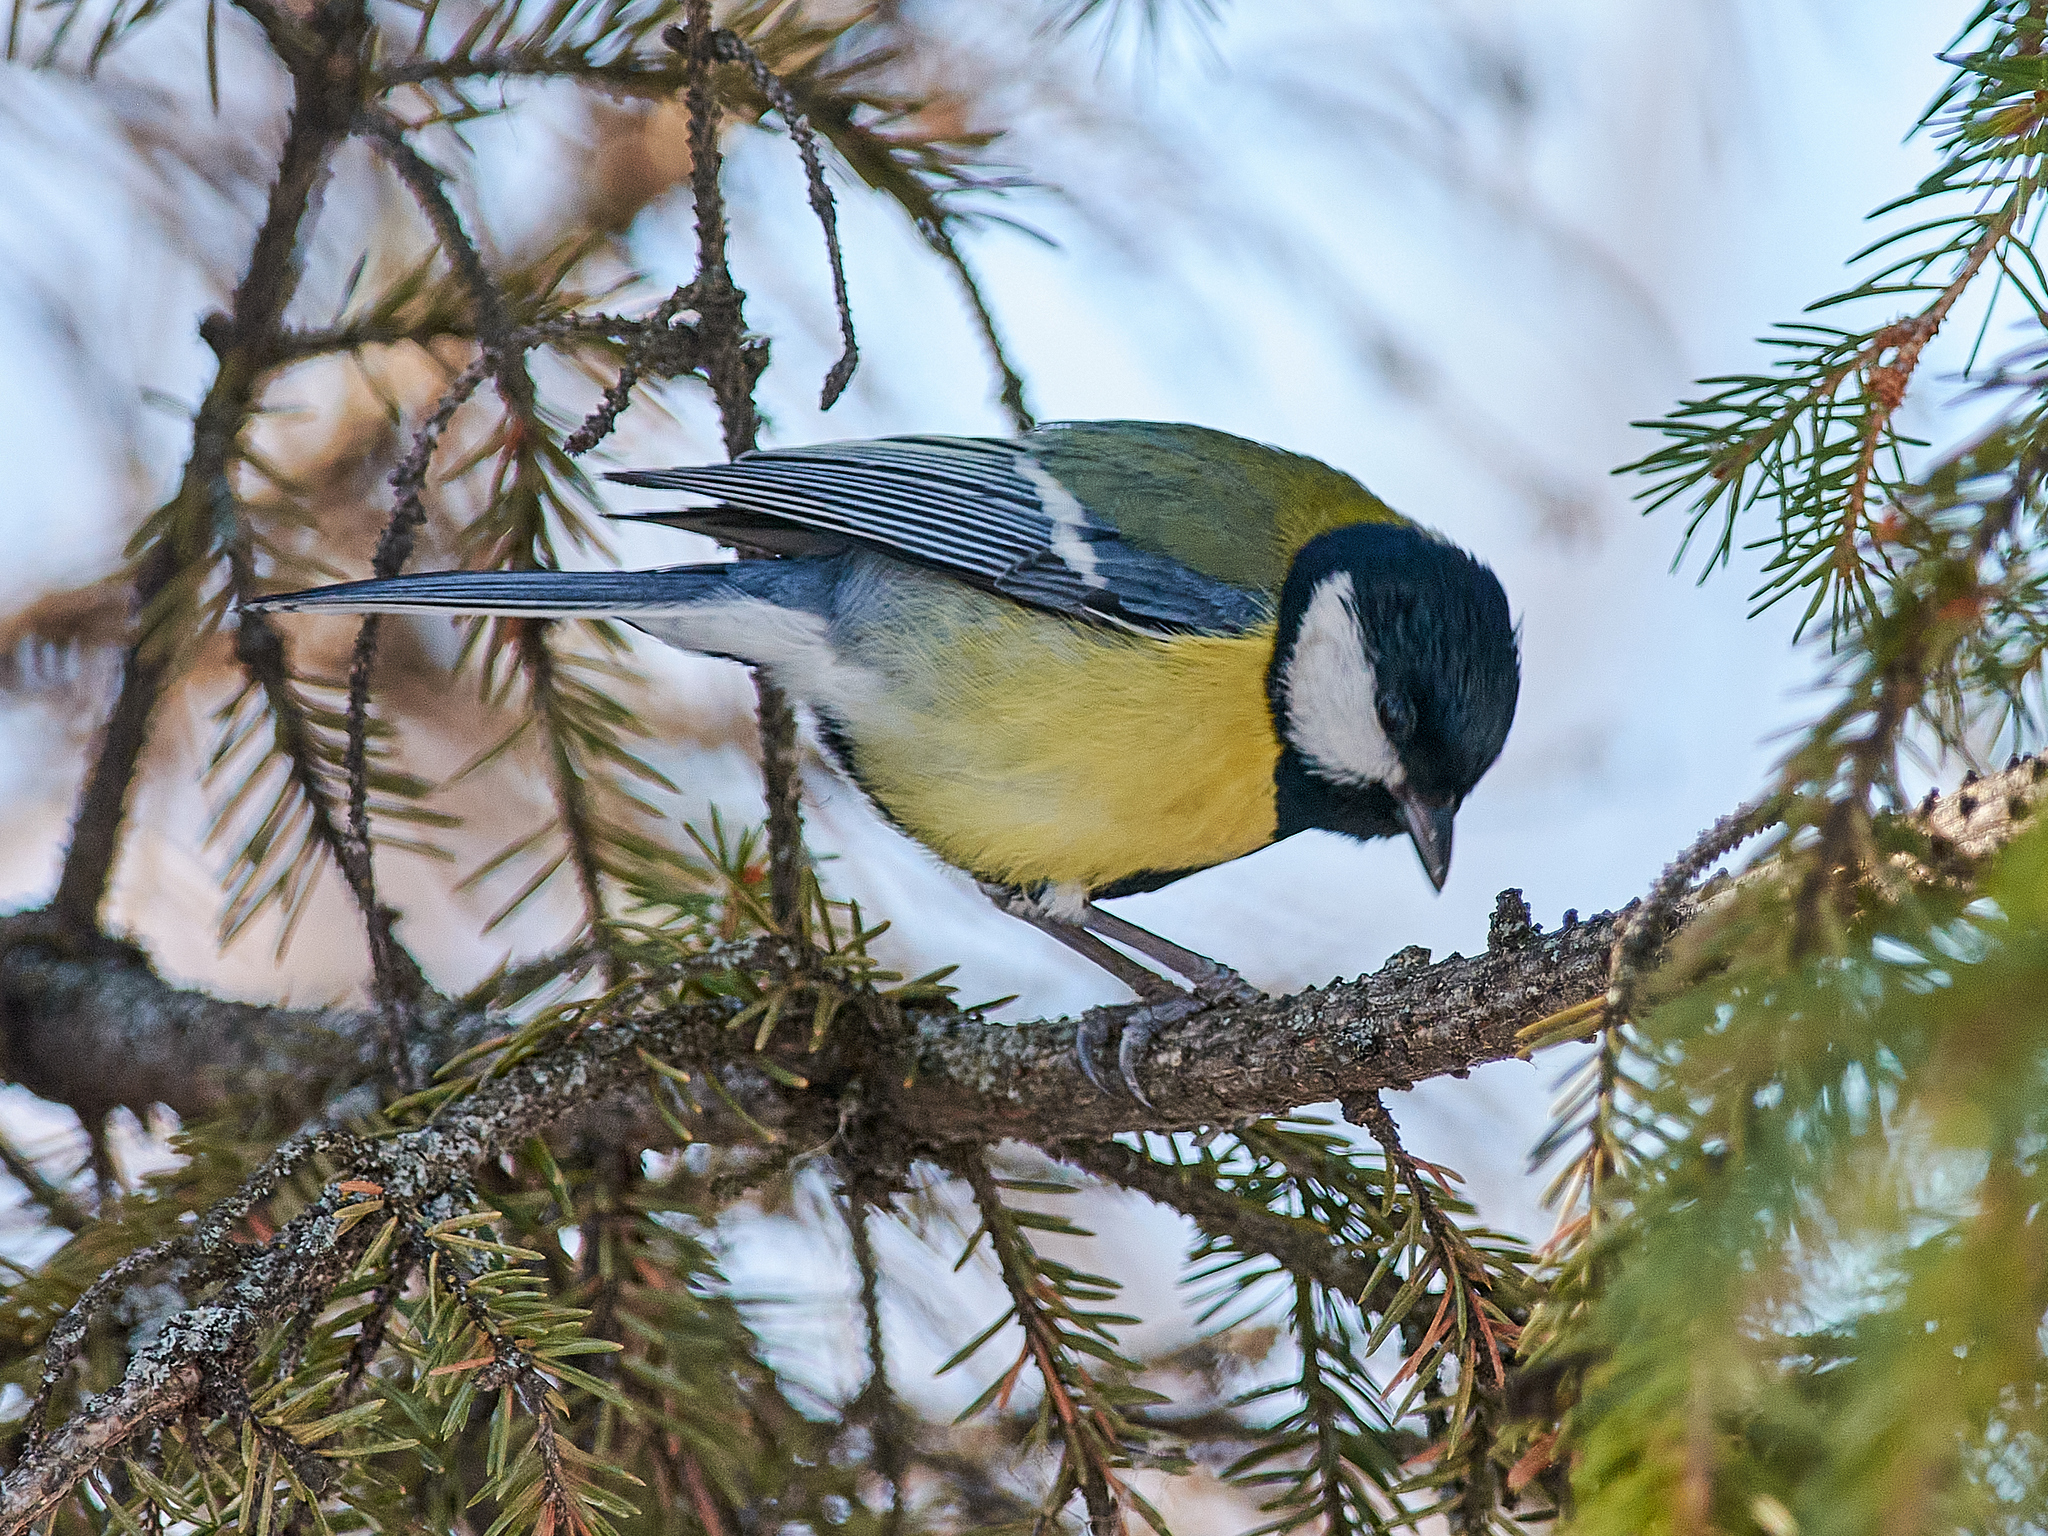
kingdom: Animalia
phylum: Chordata
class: Aves
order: Passeriformes
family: Paridae
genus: Parus
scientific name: Parus major
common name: Great tit
